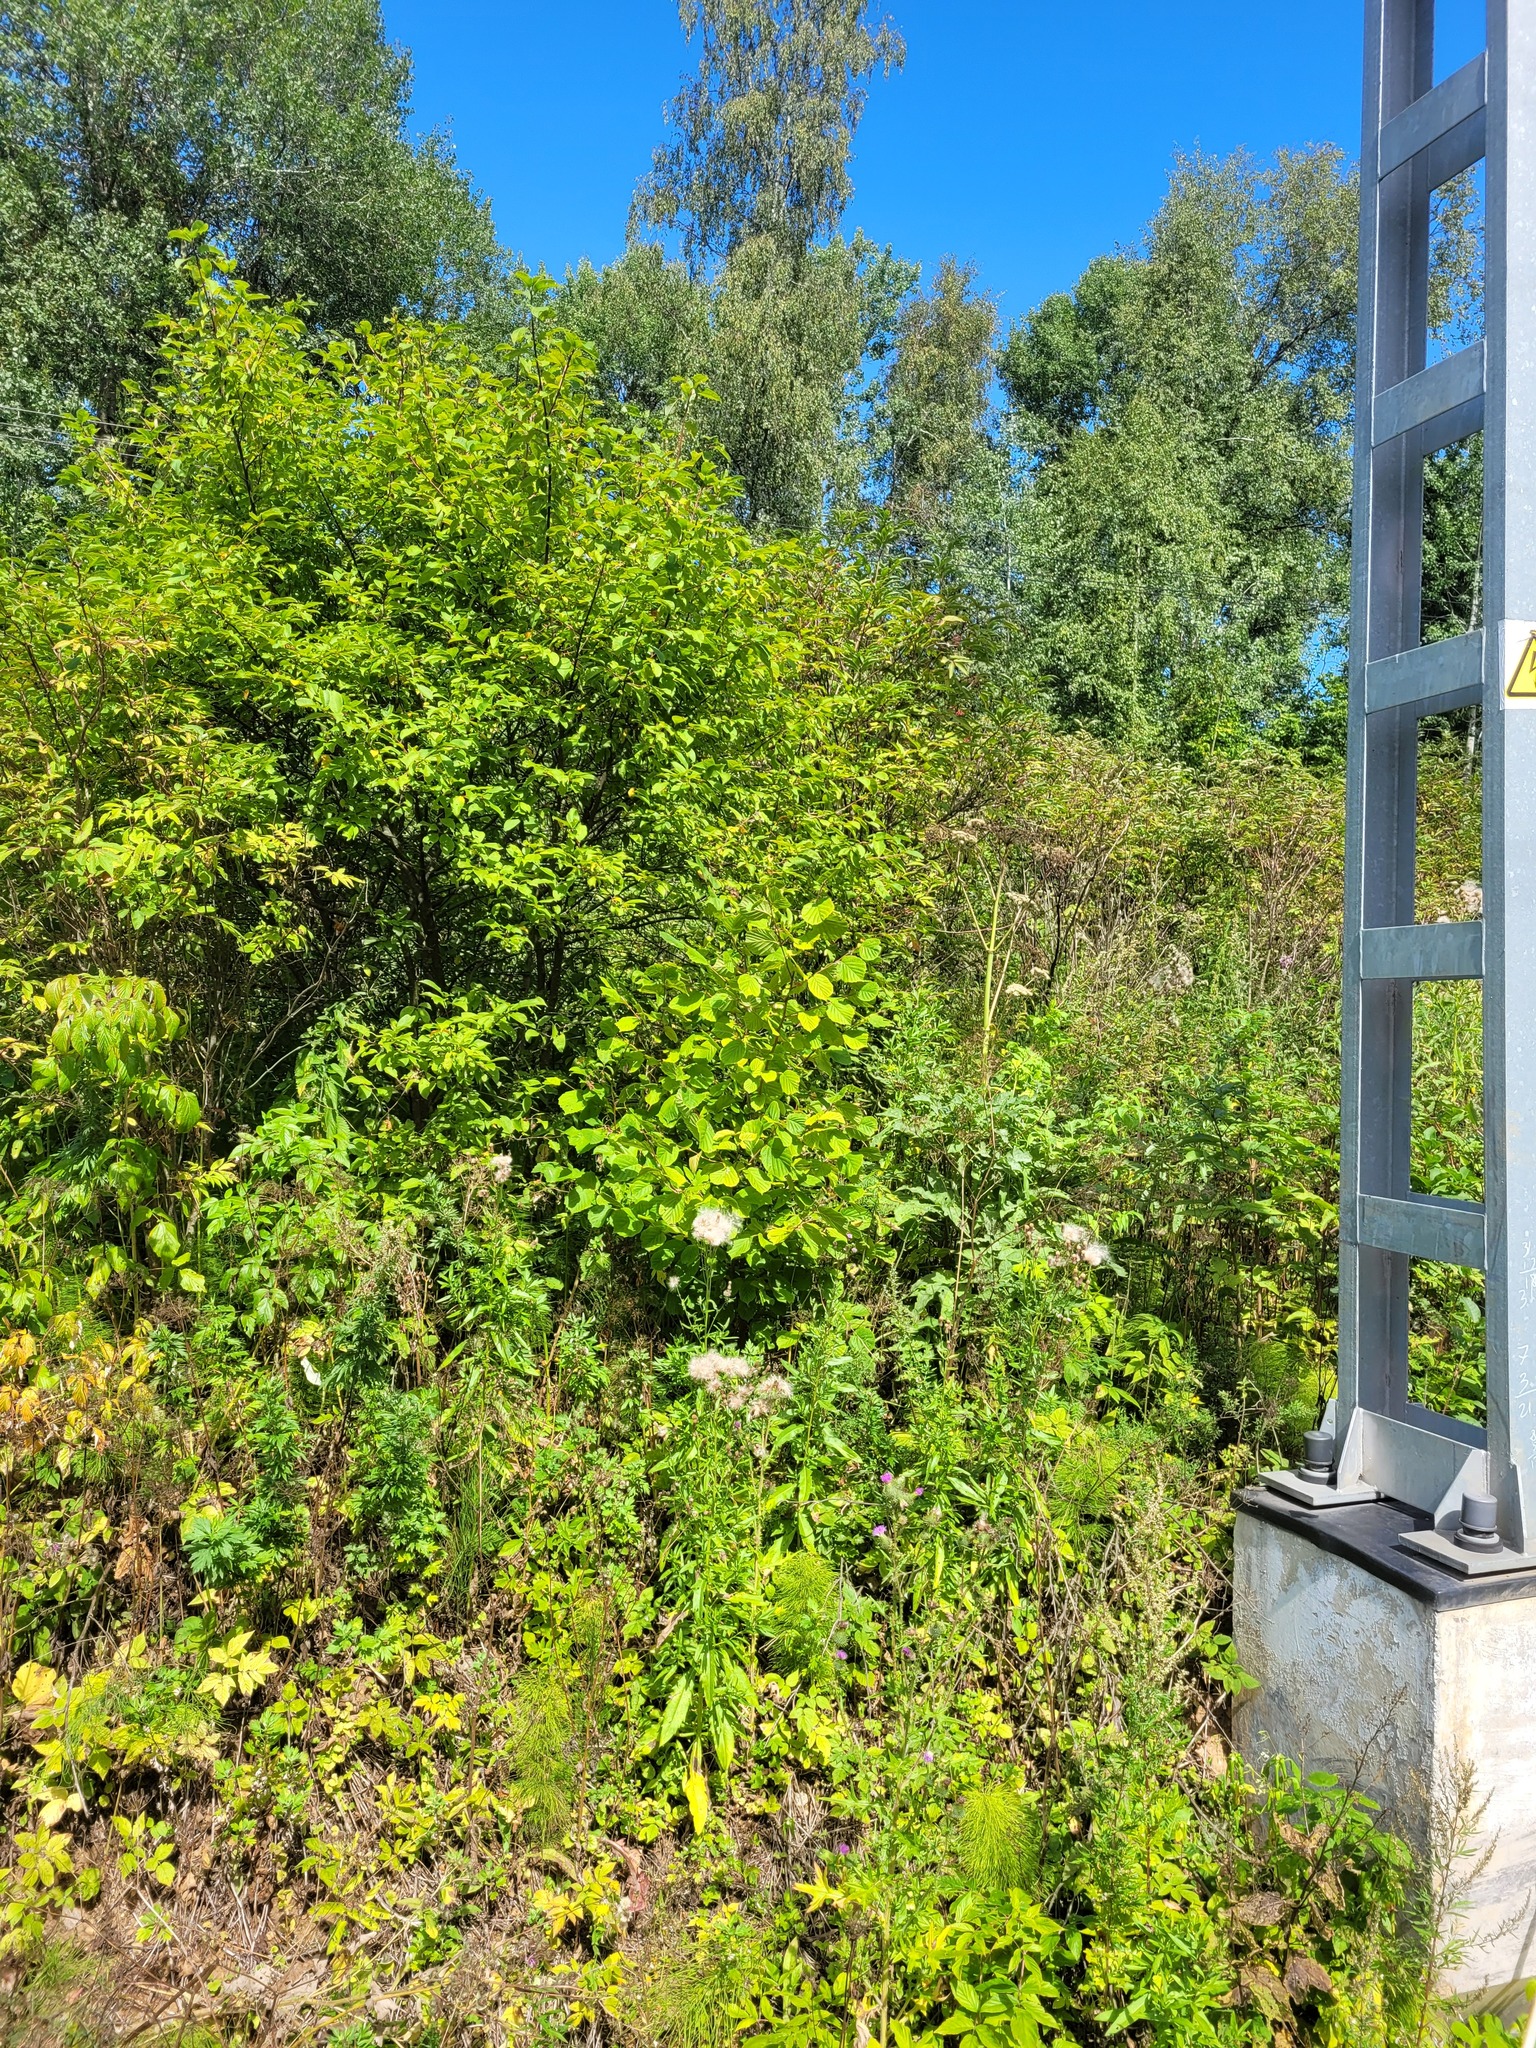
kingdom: Plantae
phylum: Tracheophyta
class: Magnoliopsida
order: Fagales
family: Betulaceae
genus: Corylus
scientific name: Corylus avellana
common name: European hazel
